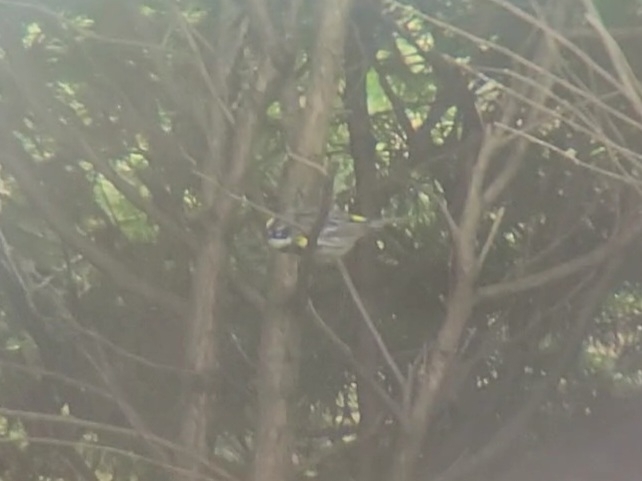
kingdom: Animalia
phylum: Chordata
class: Aves
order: Passeriformes
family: Parulidae
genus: Setophaga
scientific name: Setophaga coronata
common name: Myrtle warbler
